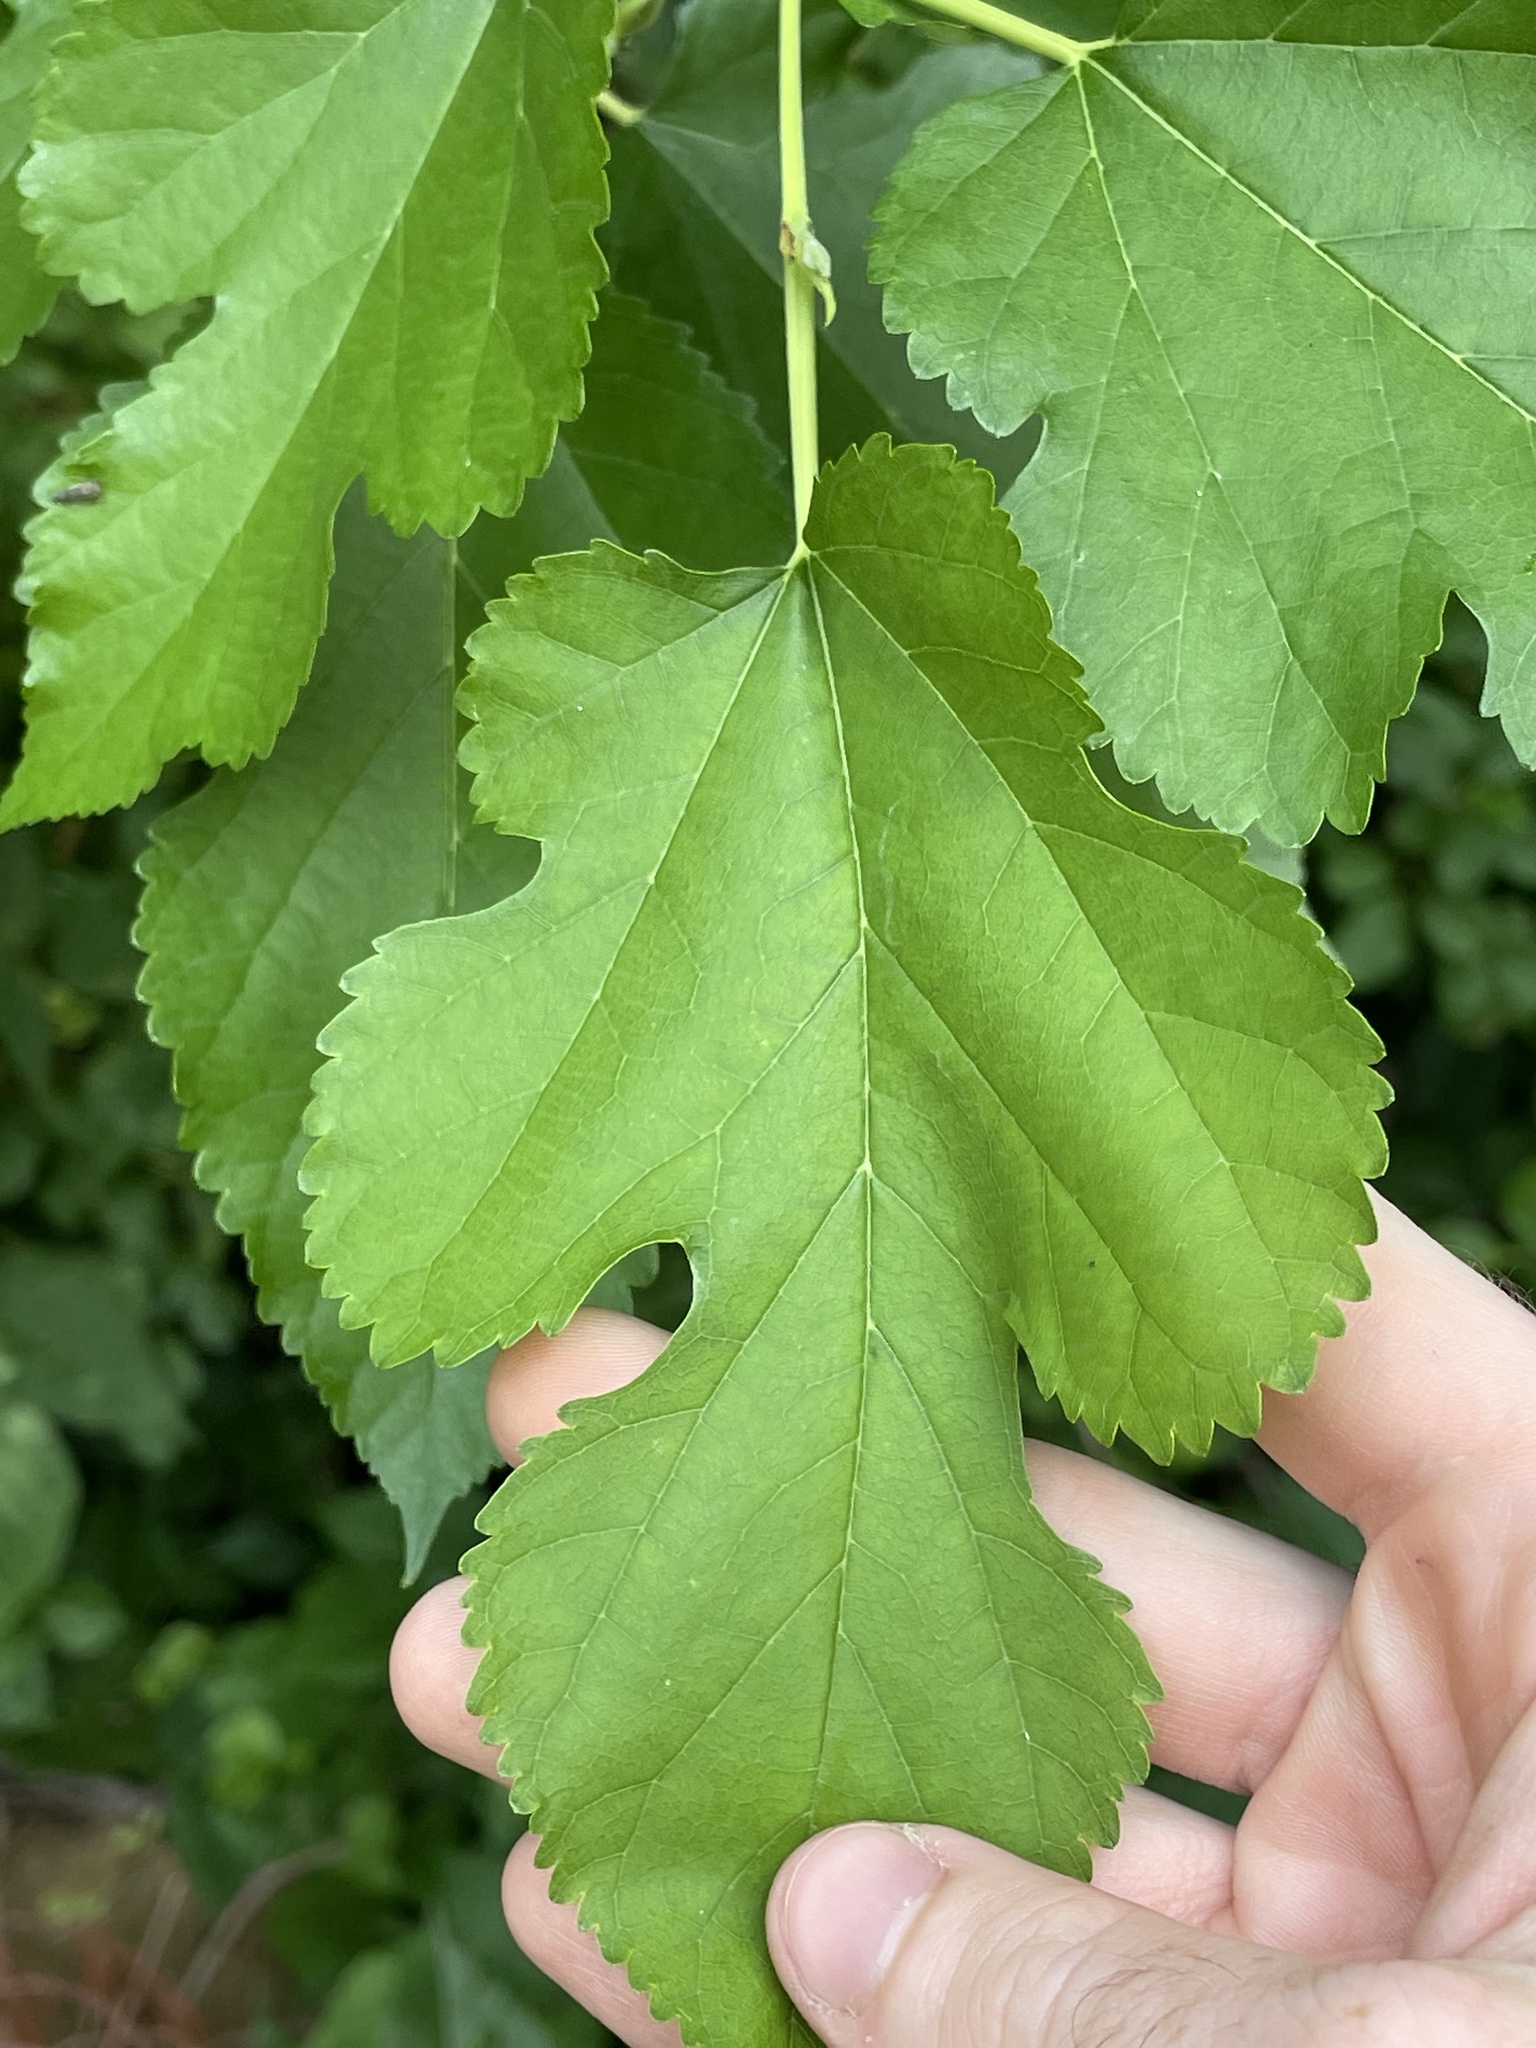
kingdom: Plantae
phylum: Tracheophyta
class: Magnoliopsida
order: Rosales
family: Moraceae
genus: Morus
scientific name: Morus alba
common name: White mulberry
